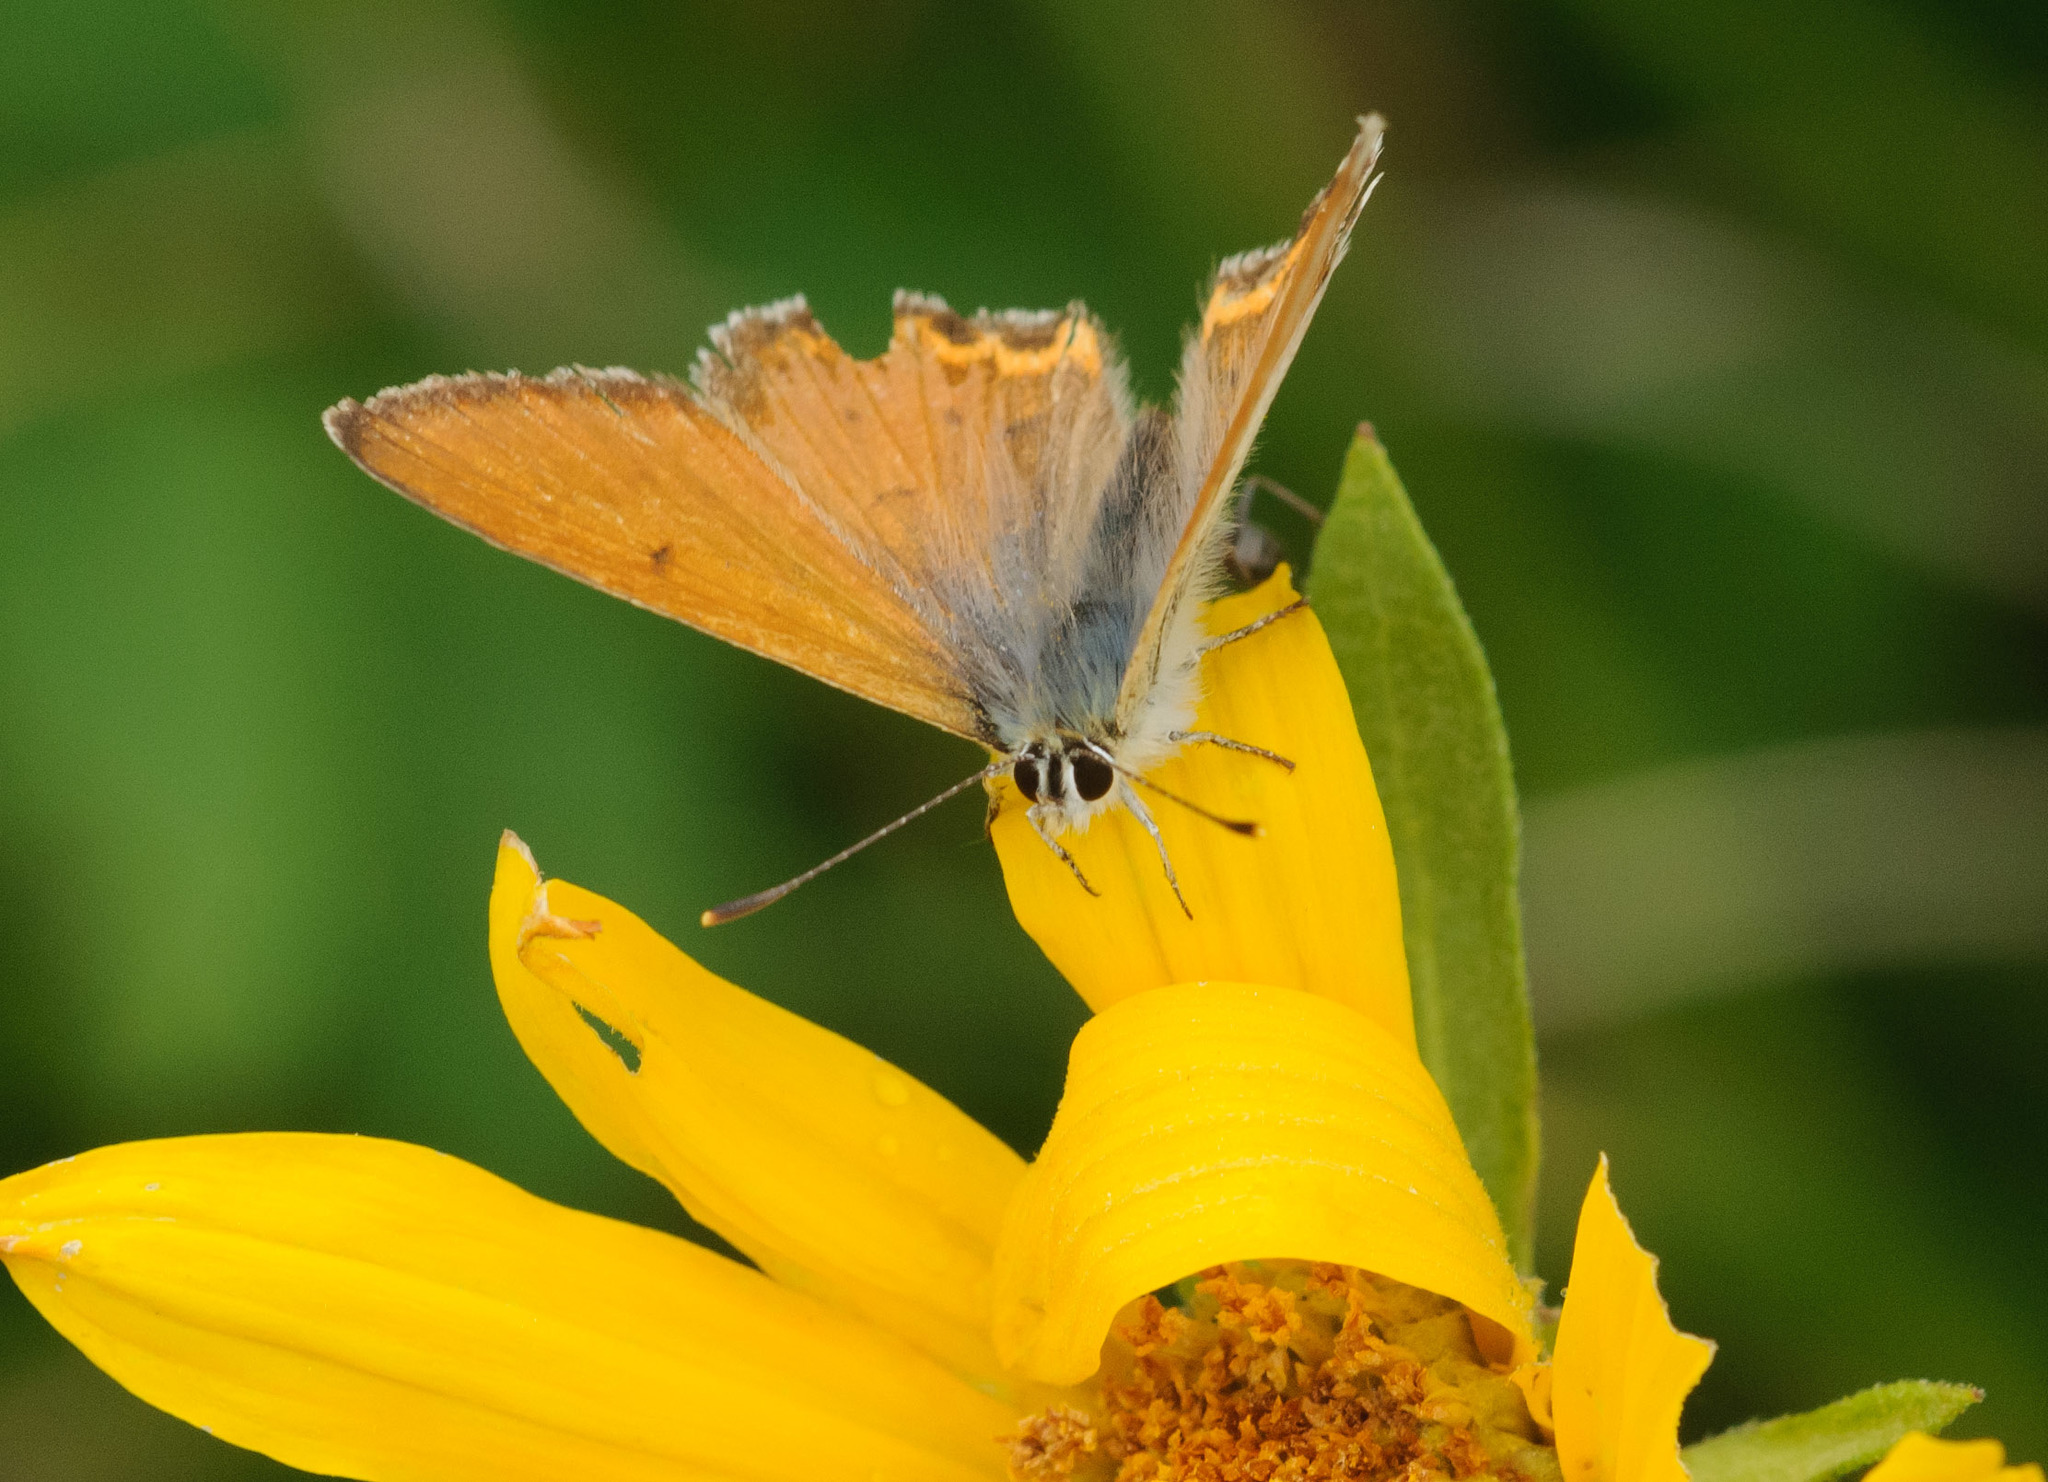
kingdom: Animalia
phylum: Arthropoda
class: Insecta
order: Lepidoptera
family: Lycaenidae
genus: Tharsalea
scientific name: Tharsalea rubidus
